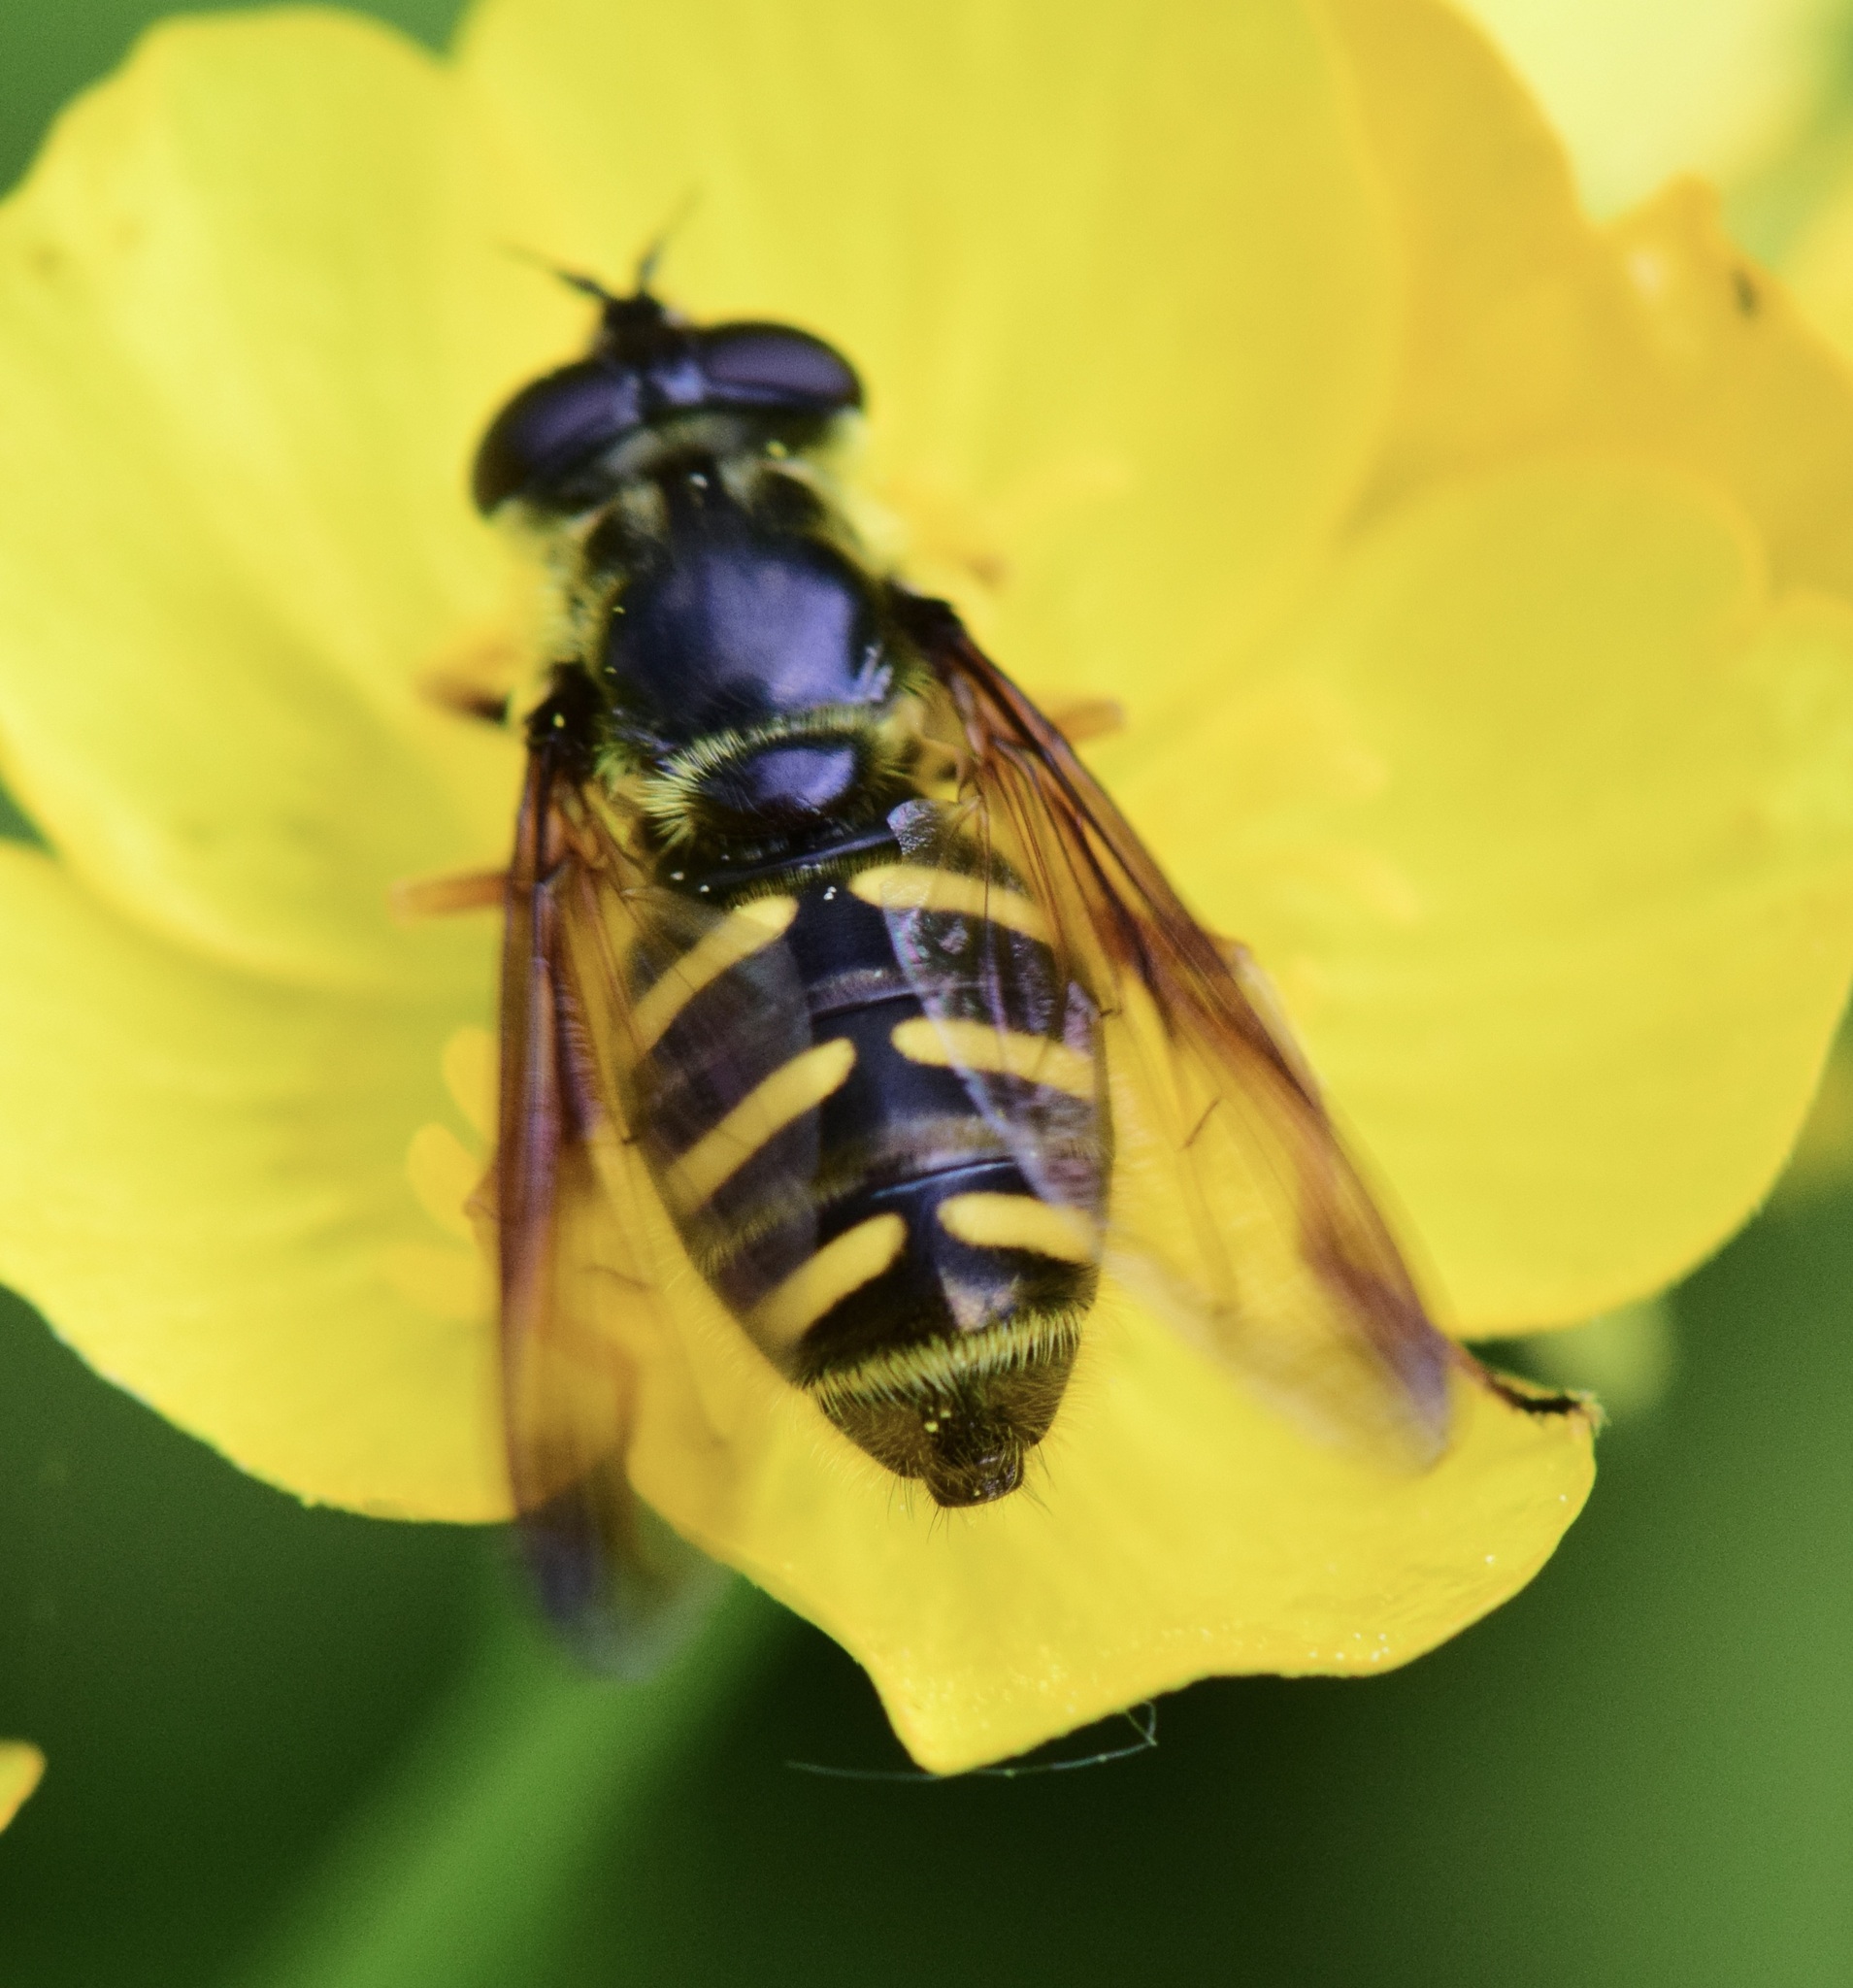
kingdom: Animalia
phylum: Arthropoda
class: Insecta
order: Diptera
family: Syrphidae
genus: Sericomyia
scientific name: Sericomyia chrysotoxoides
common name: Oblique-banded pond fly
